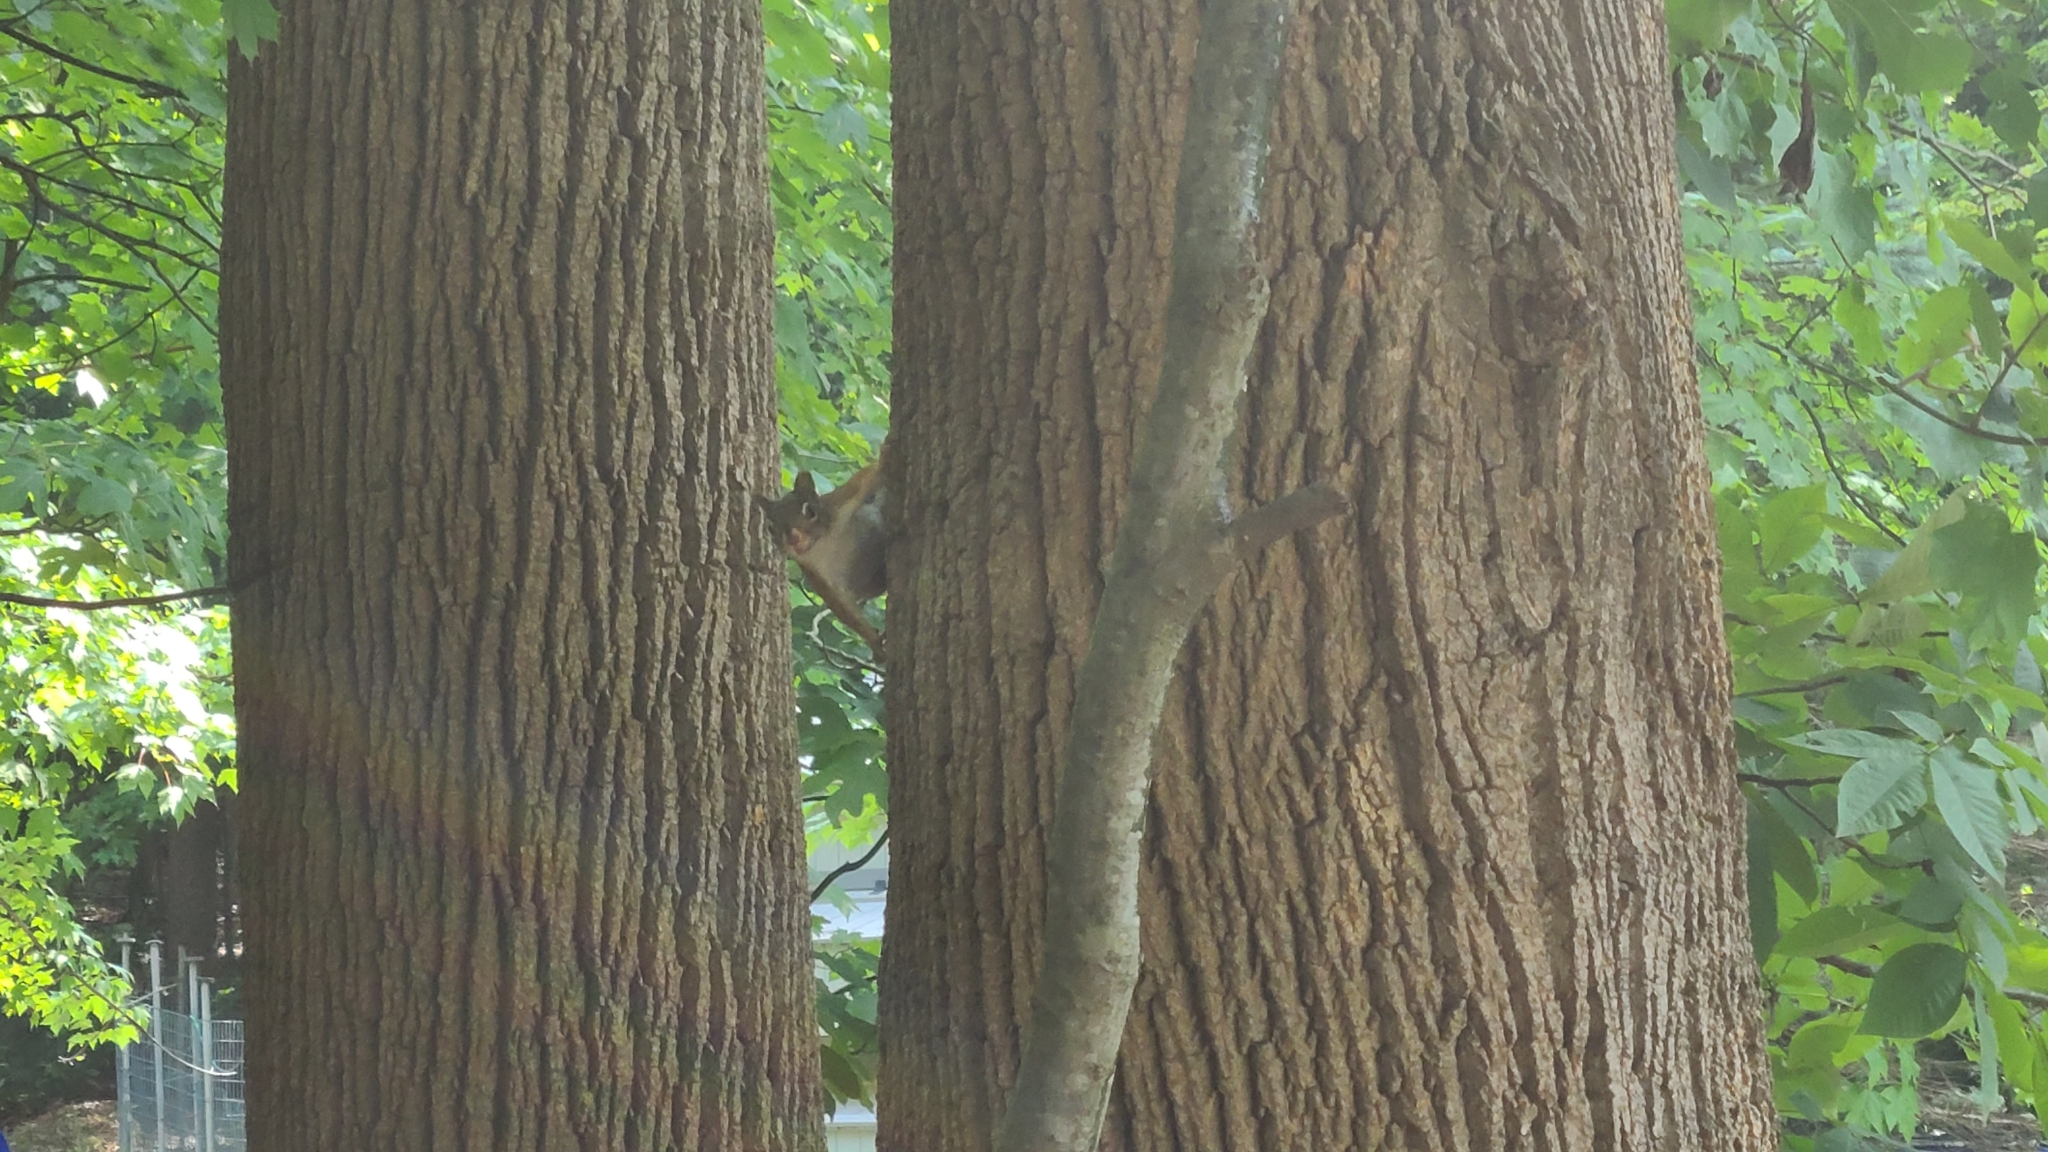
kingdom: Animalia
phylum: Chordata
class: Mammalia
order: Rodentia
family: Sciuridae
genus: Tamiasciurus
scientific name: Tamiasciurus hudsonicus
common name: Red squirrel
